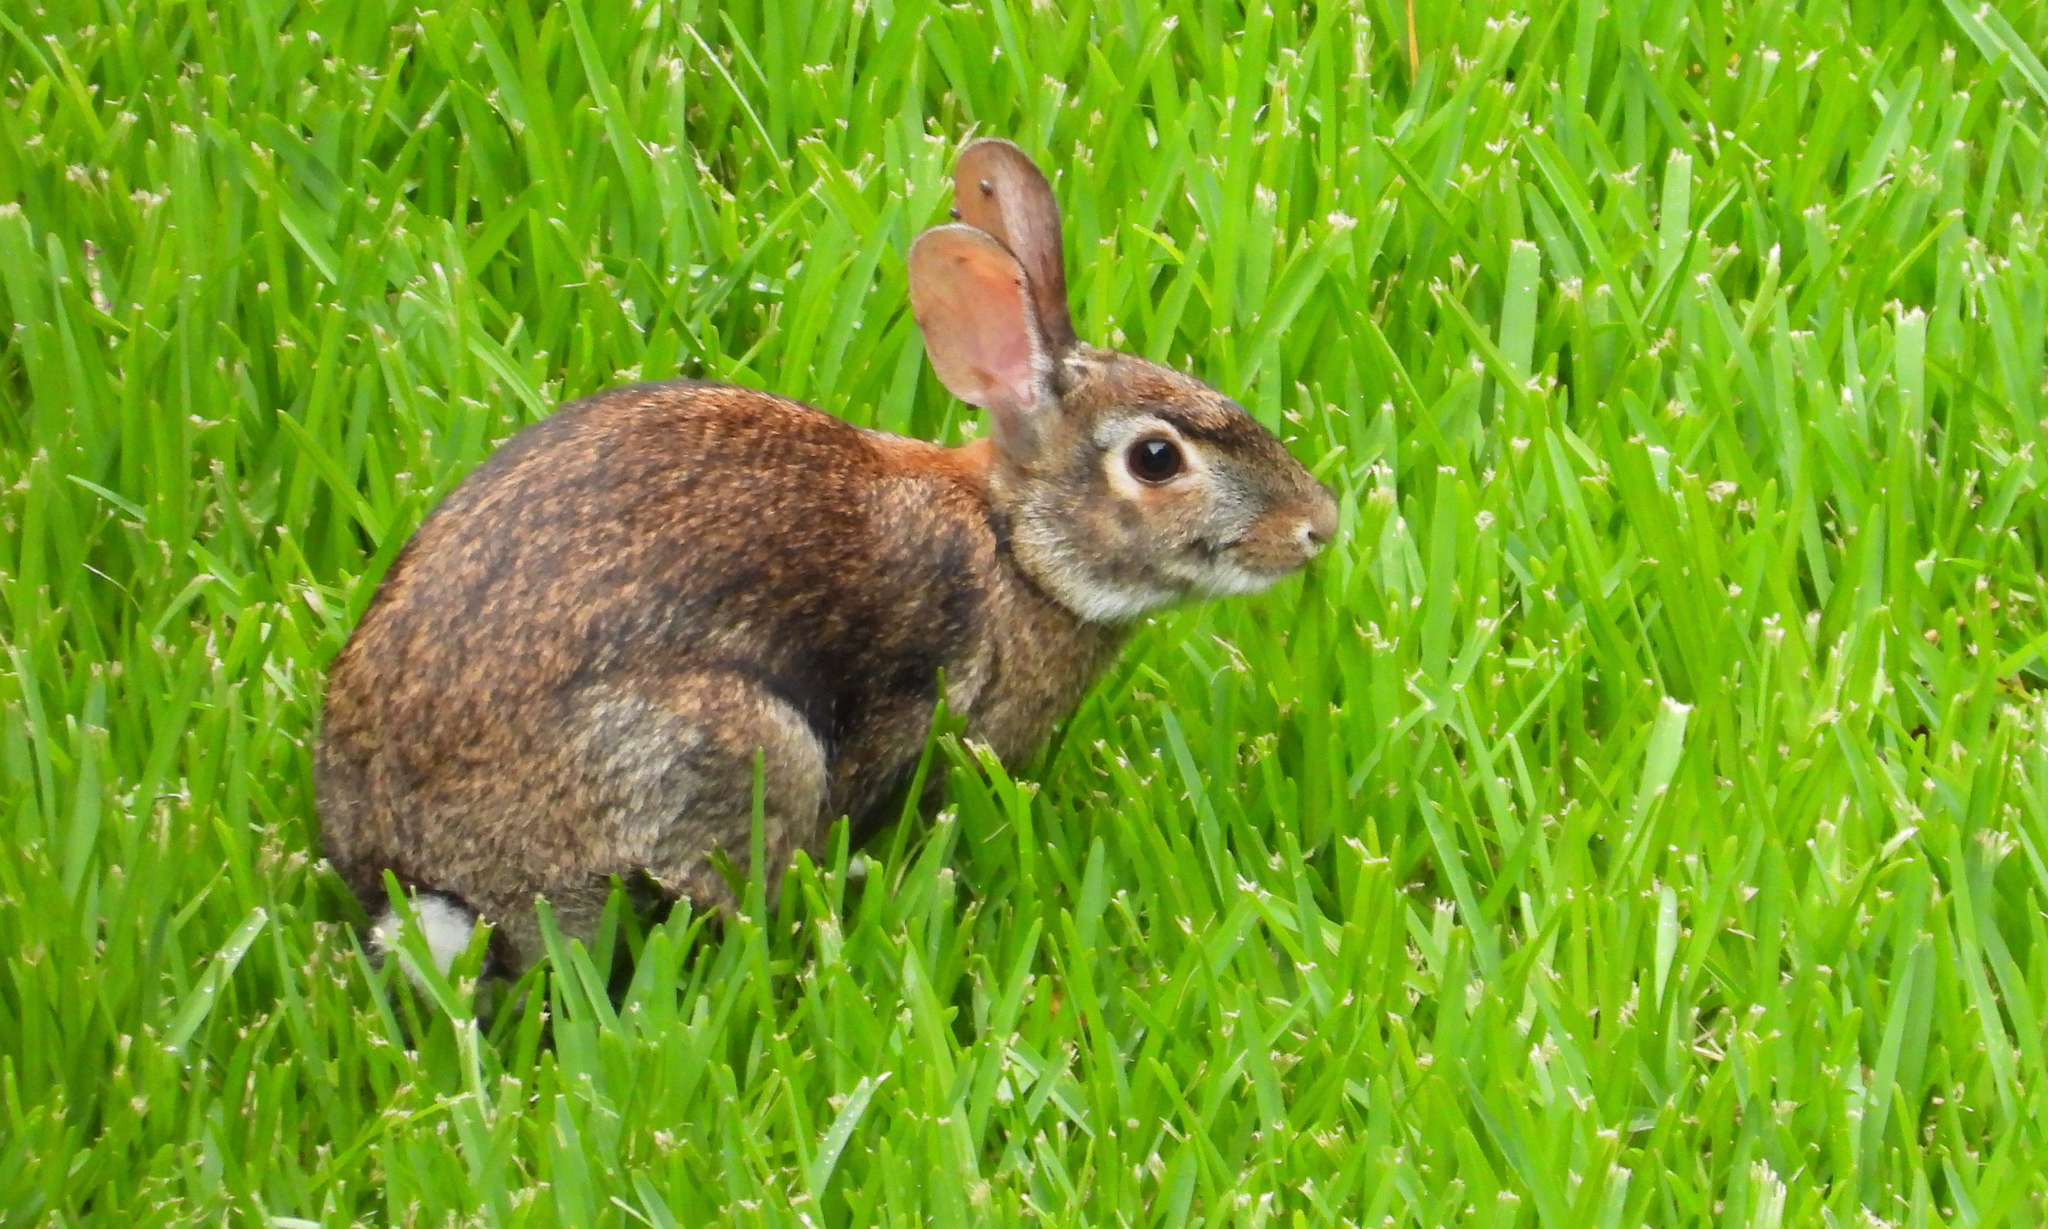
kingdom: Animalia
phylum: Chordata
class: Mammalia
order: Lagomorpha
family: Leporidae
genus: Sylvilagus
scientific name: Sylvilagus floridanus
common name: Eastern cottontail
